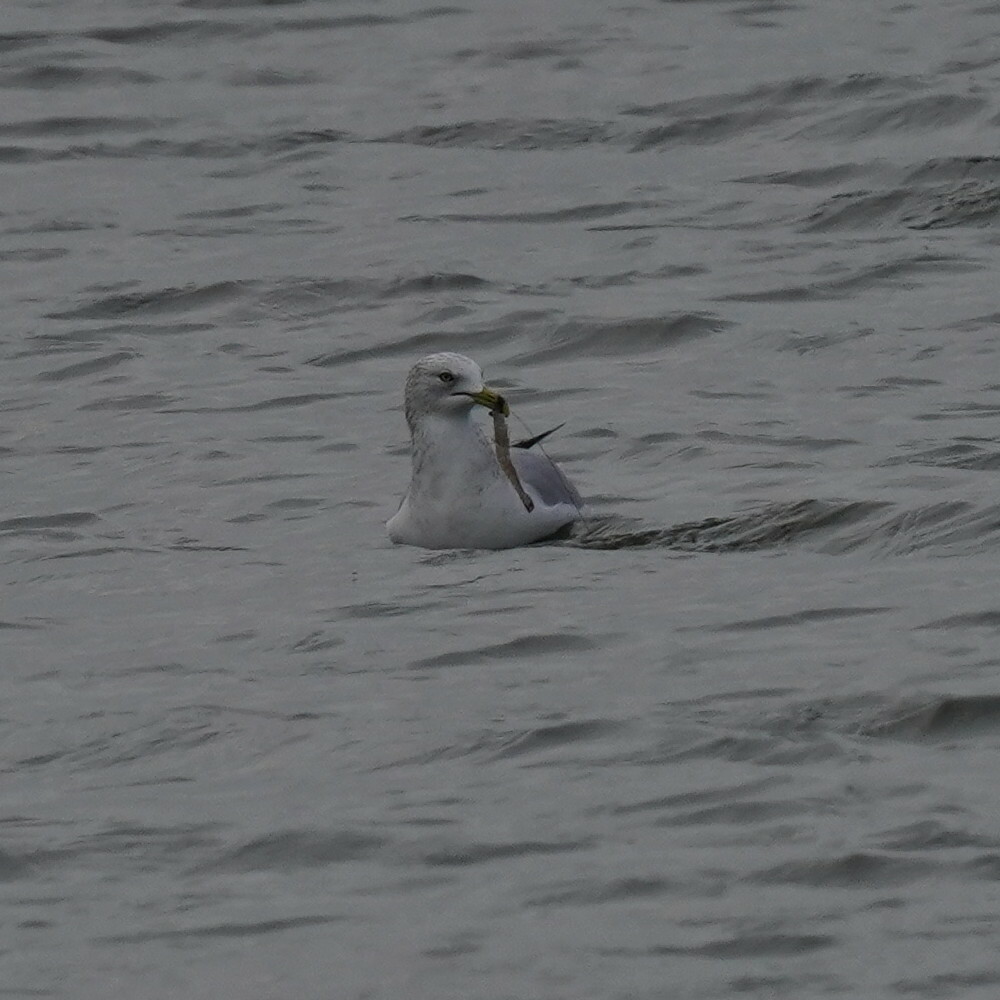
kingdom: Animalia
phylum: Chordata
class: Aves
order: Charadriiformes
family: Laridae
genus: Larus
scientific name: Larus delawarensis
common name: Ring-billed gull
